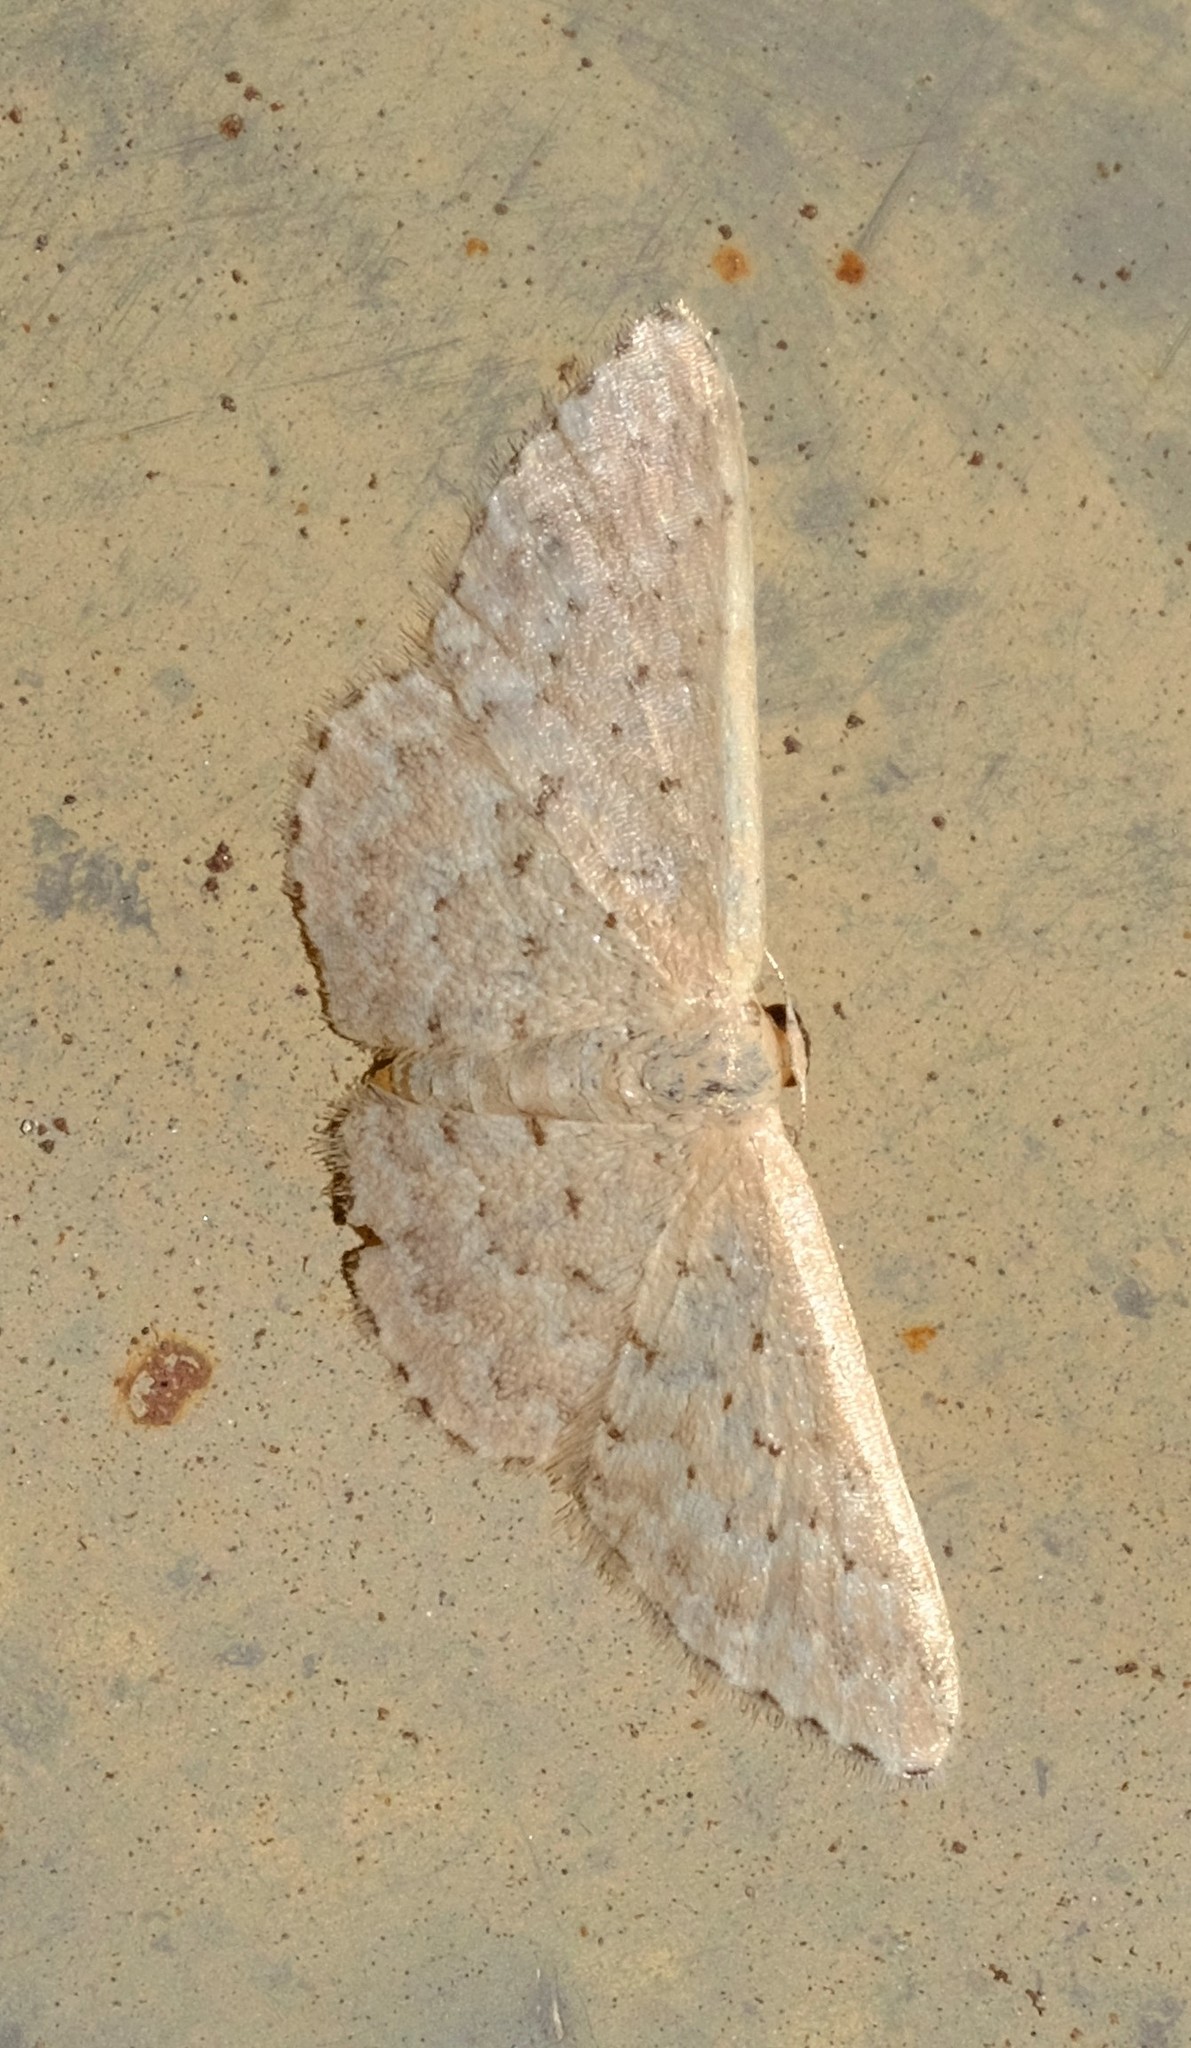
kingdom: Animalia
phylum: Arthropoda
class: Insecta
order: Lepidoptera
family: Geometridae
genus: Idaea
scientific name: Idaea philocosma
